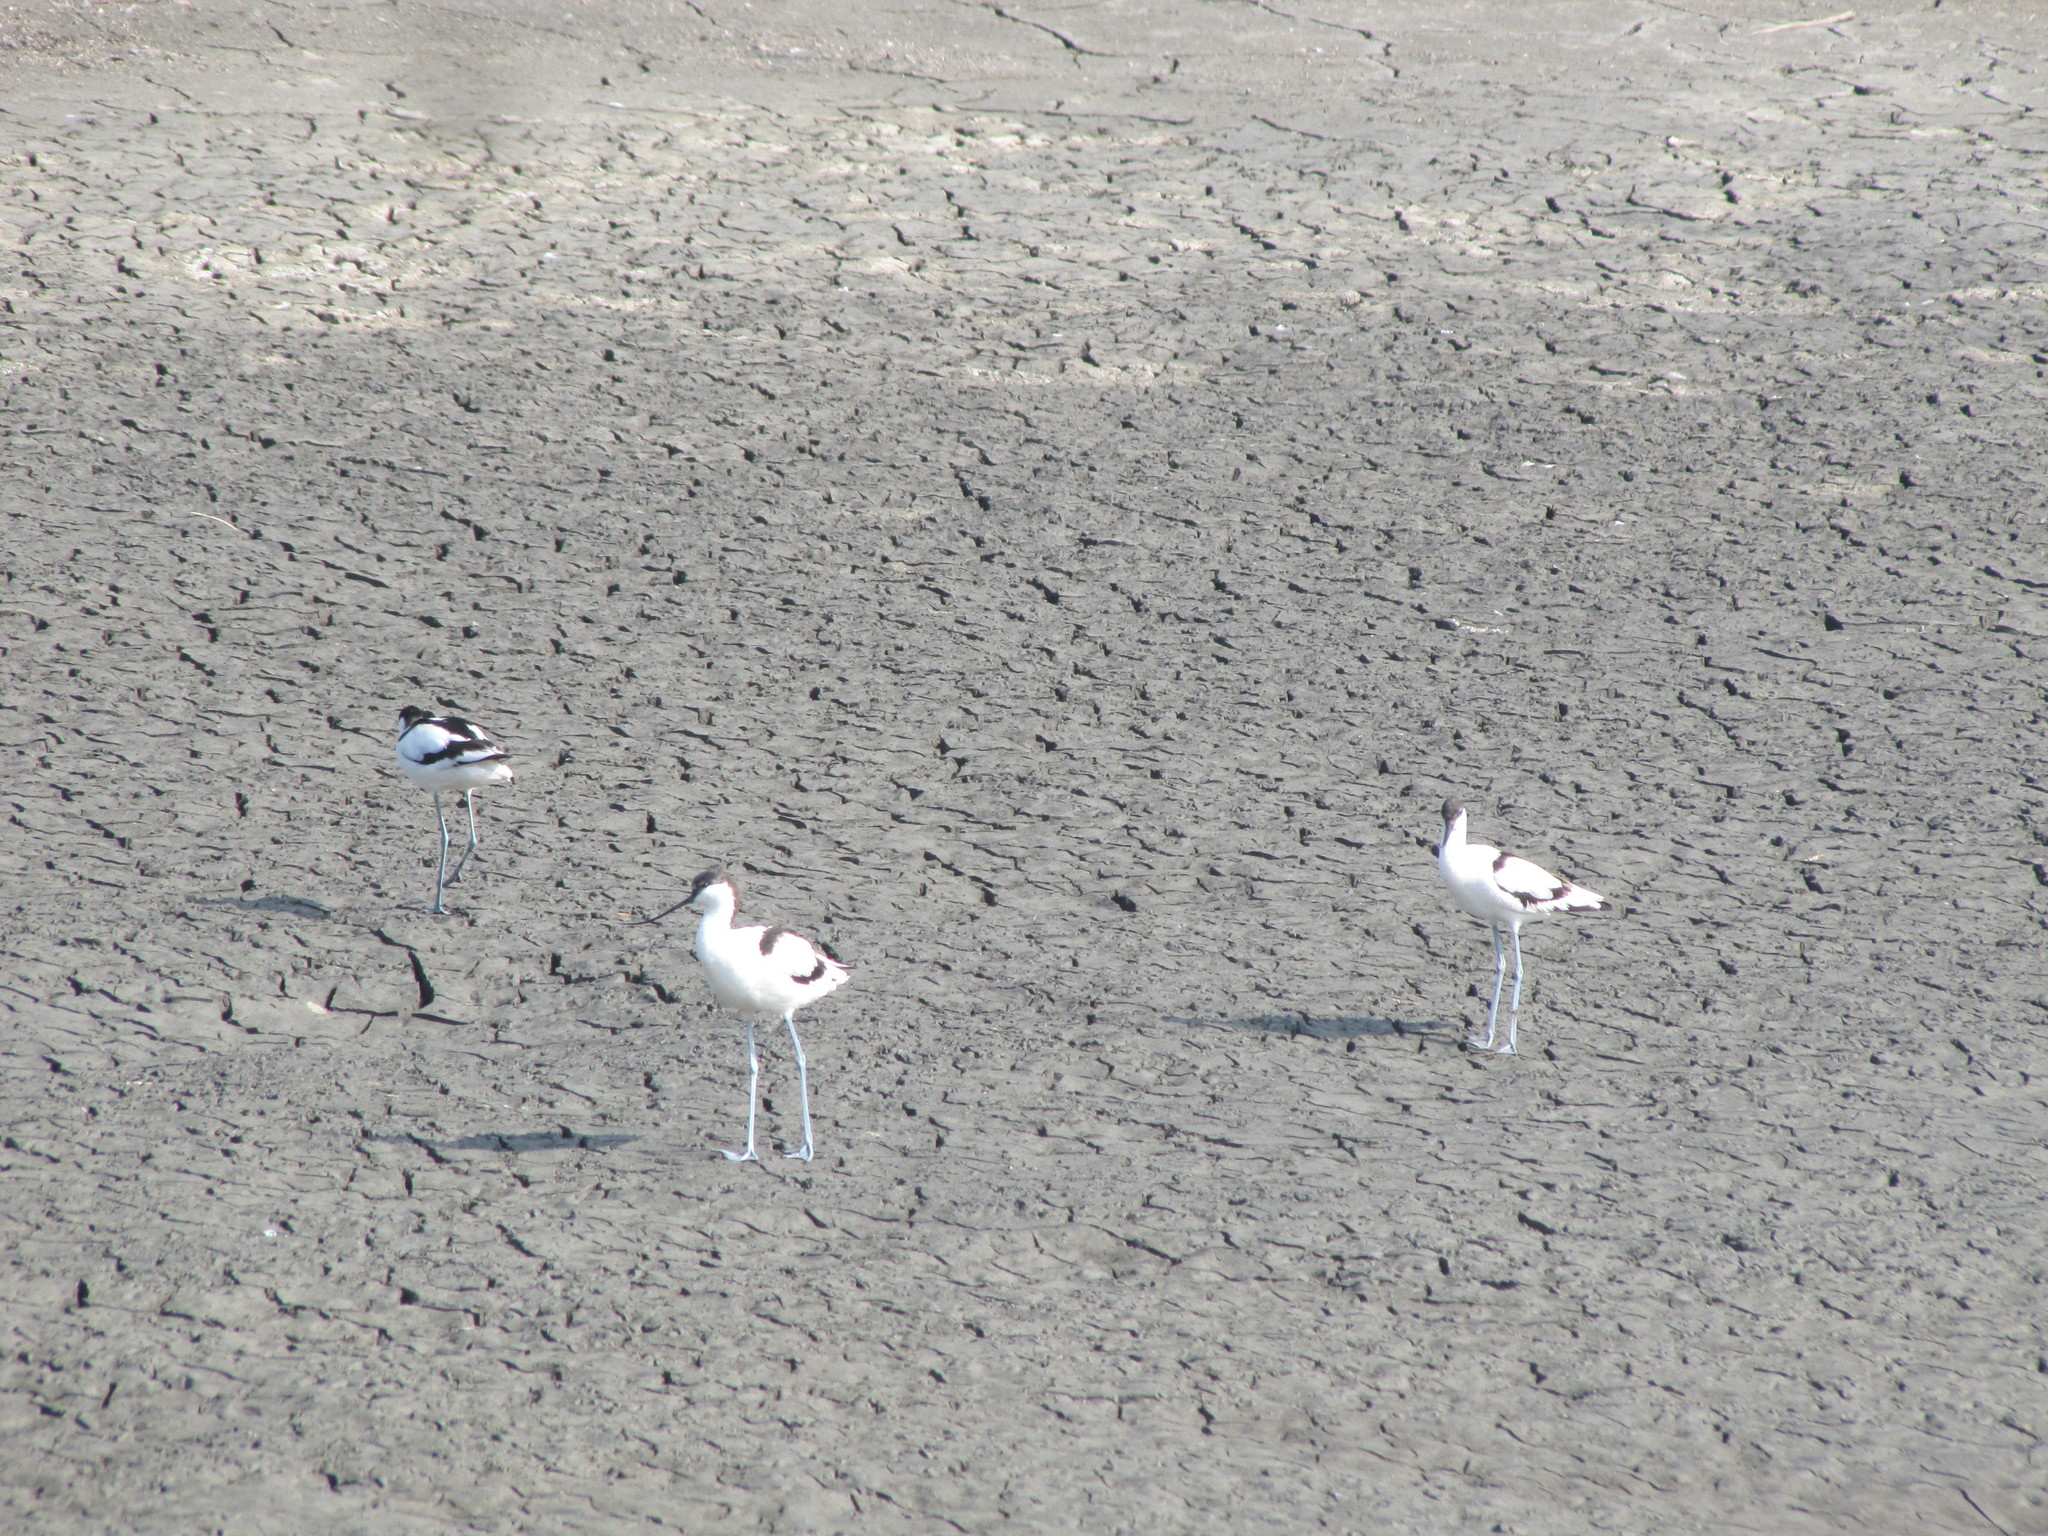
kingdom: Animalia
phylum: Chordata
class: Aves
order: Charadriiformes
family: Recurvirostridae
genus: Recurvirostra
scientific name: Recurvirostra avosetta
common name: Pied avocet
